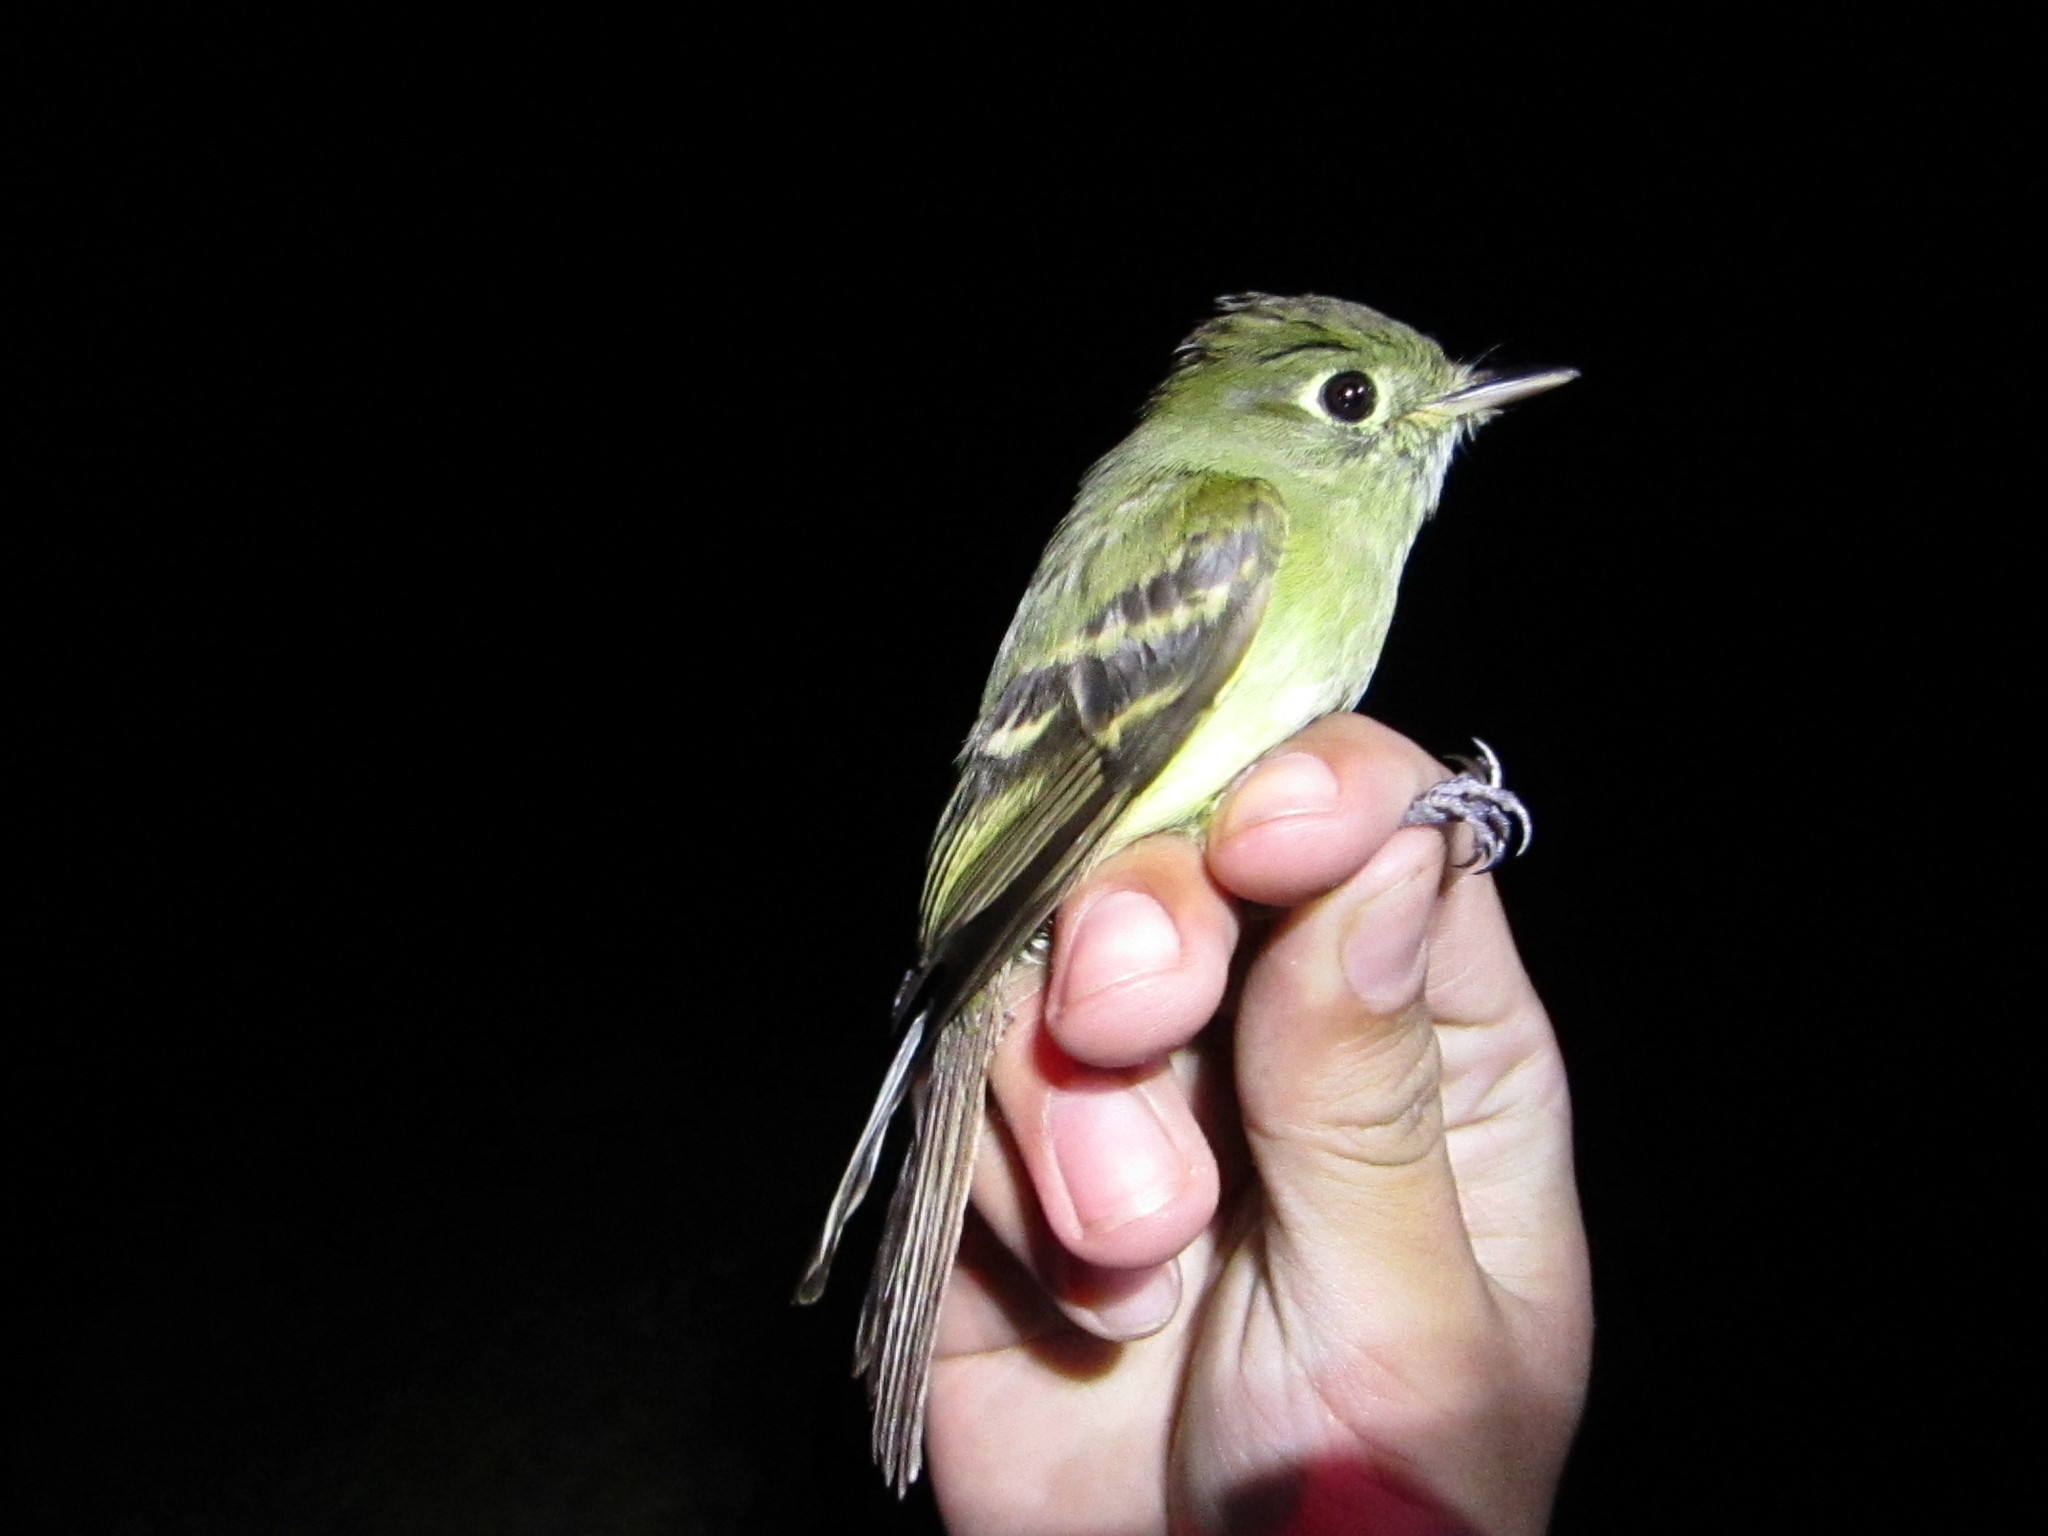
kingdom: Animalia
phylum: Chordata
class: Aves
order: Passeriformes
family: Tyrannidae
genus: Empidonax
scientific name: Empidonax difficilis
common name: Pacific-slope flycatcher
